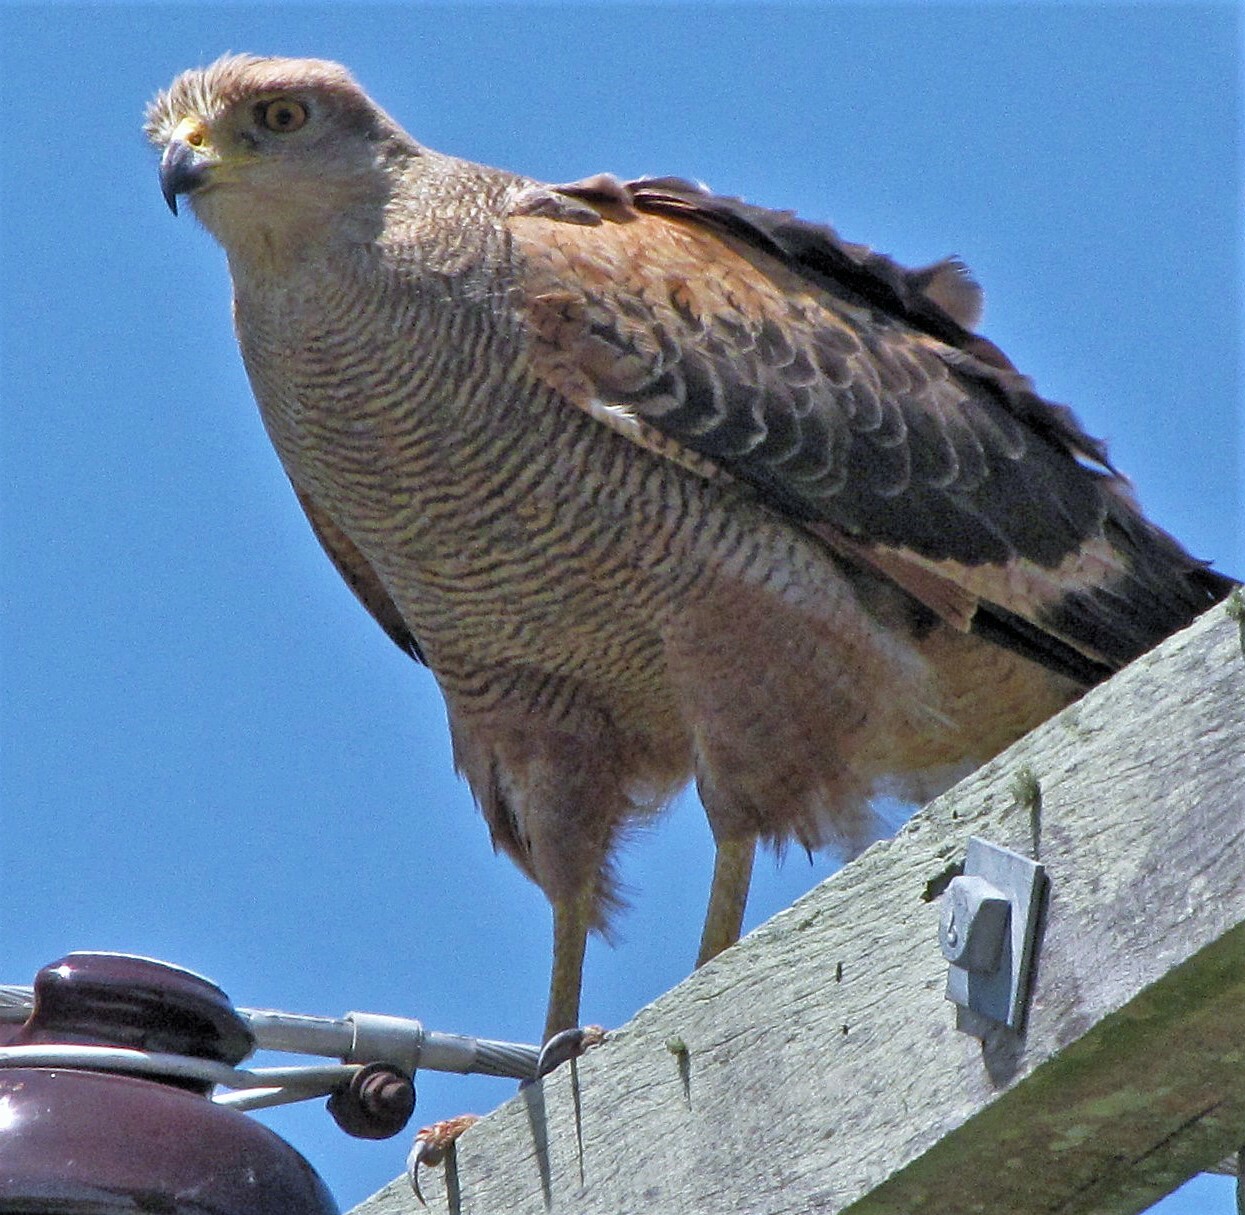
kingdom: Animalia
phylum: Chordata
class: Aves
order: Accipitriformes
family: Accipitridae
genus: Buteogallus
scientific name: Buteogallus meridionalis
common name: Savanna hawk
